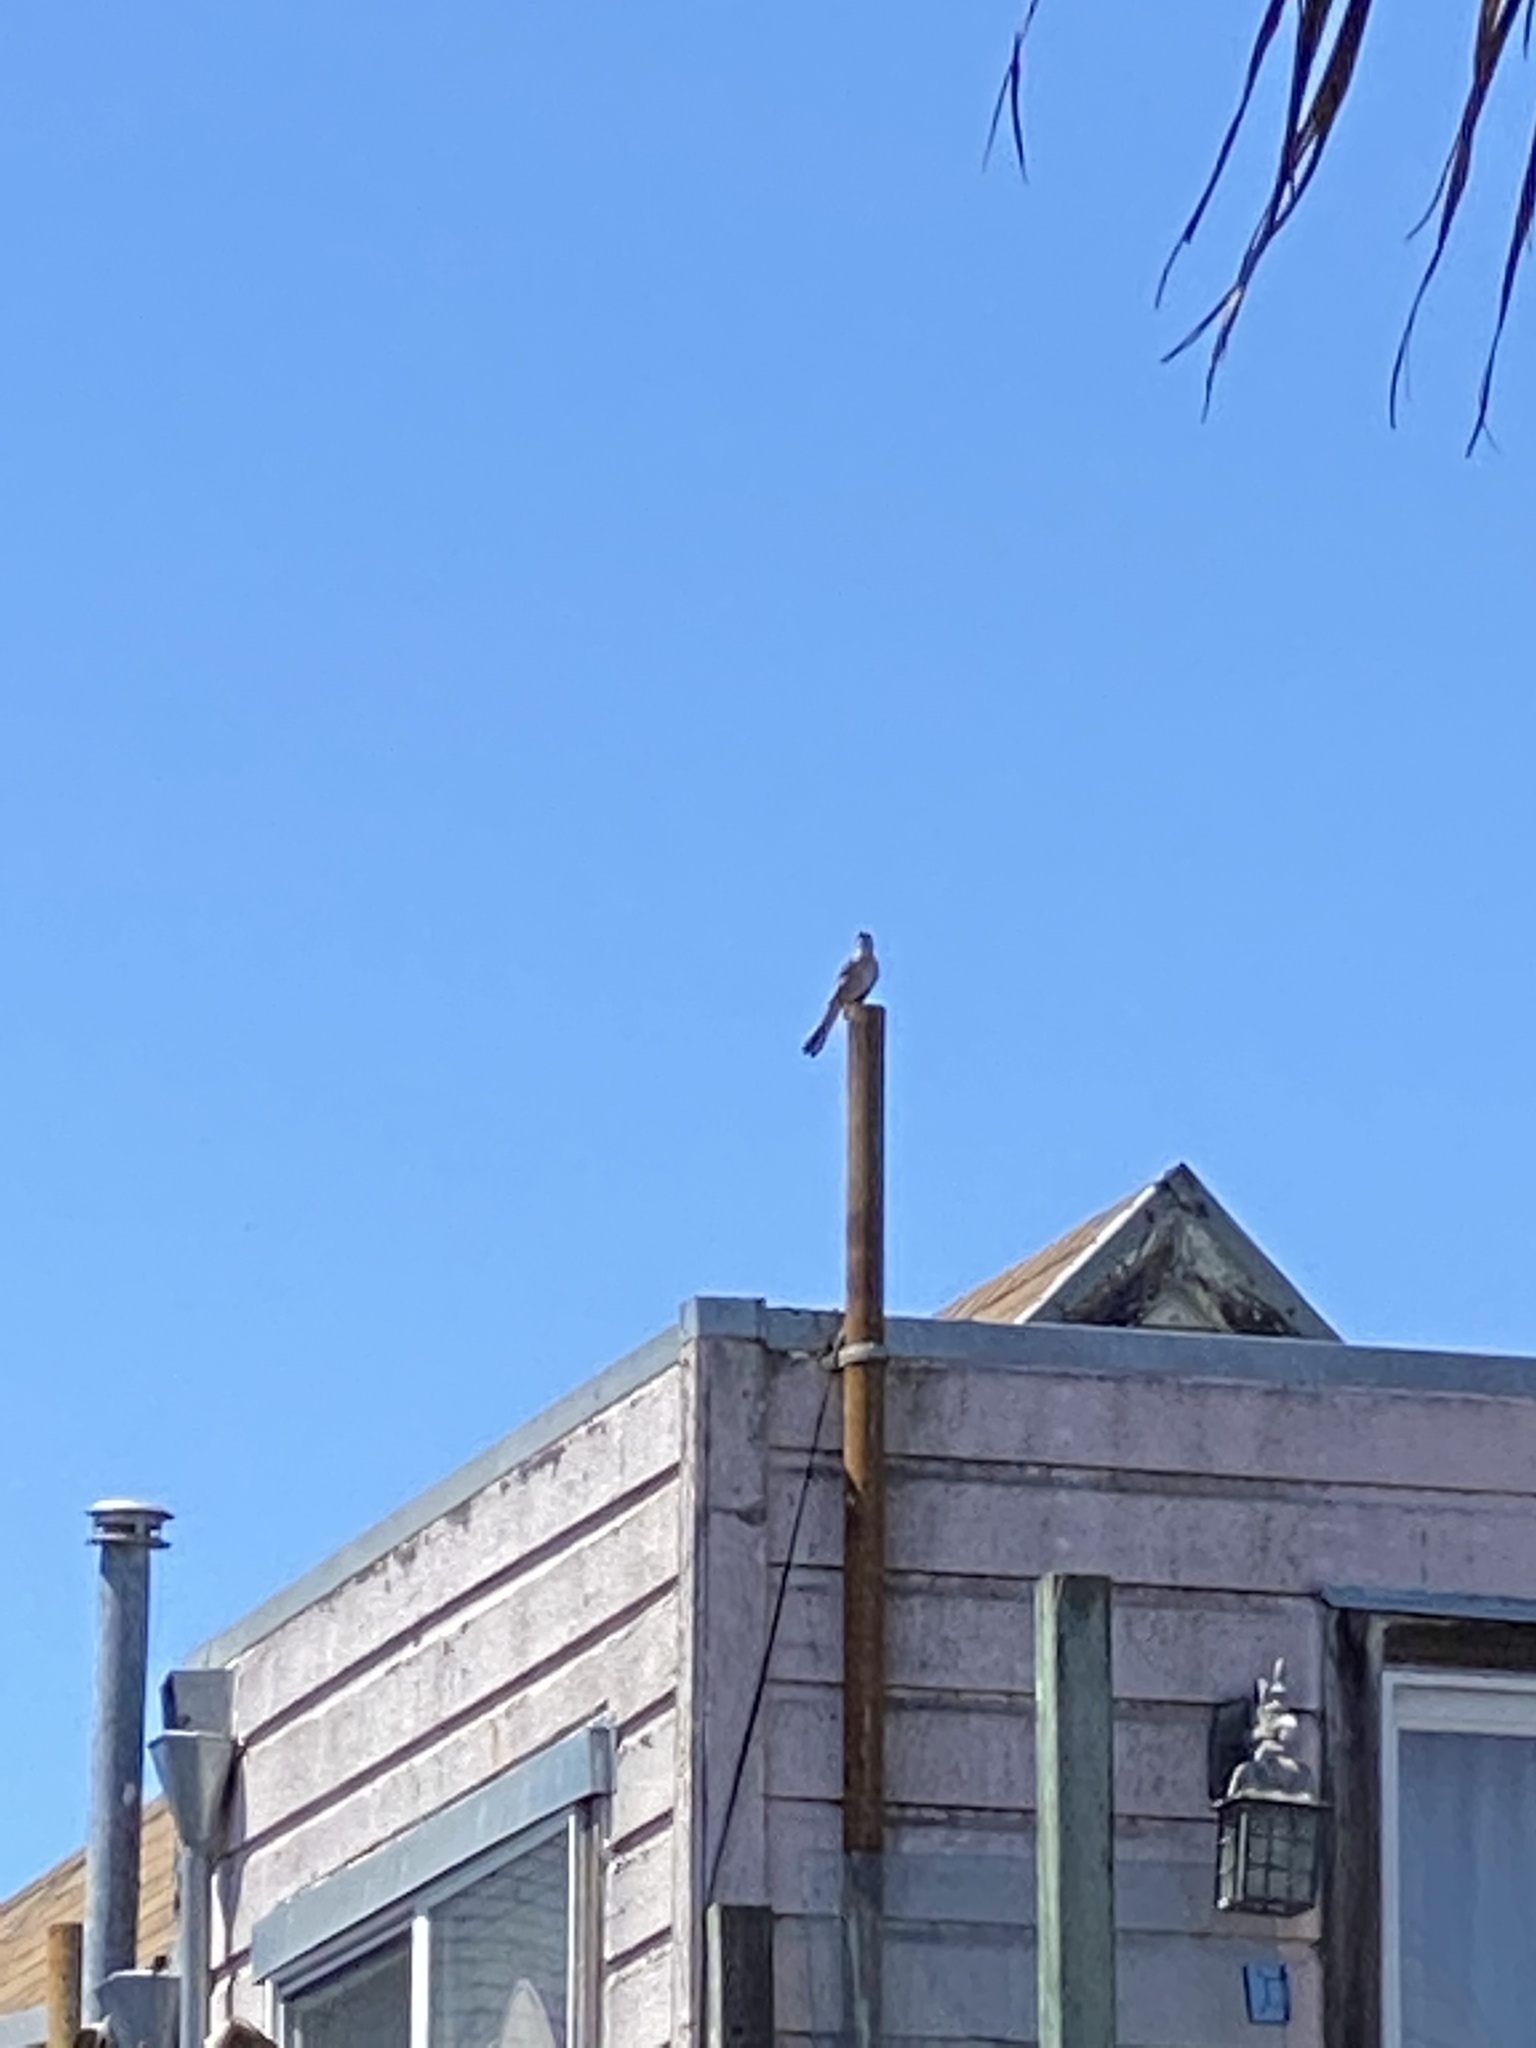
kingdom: Animalia
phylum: Chordata
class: Aves
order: Passeriformes
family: Mimidae
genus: Mimus
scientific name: Mimus polyglottos
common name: Northern mockingbird
